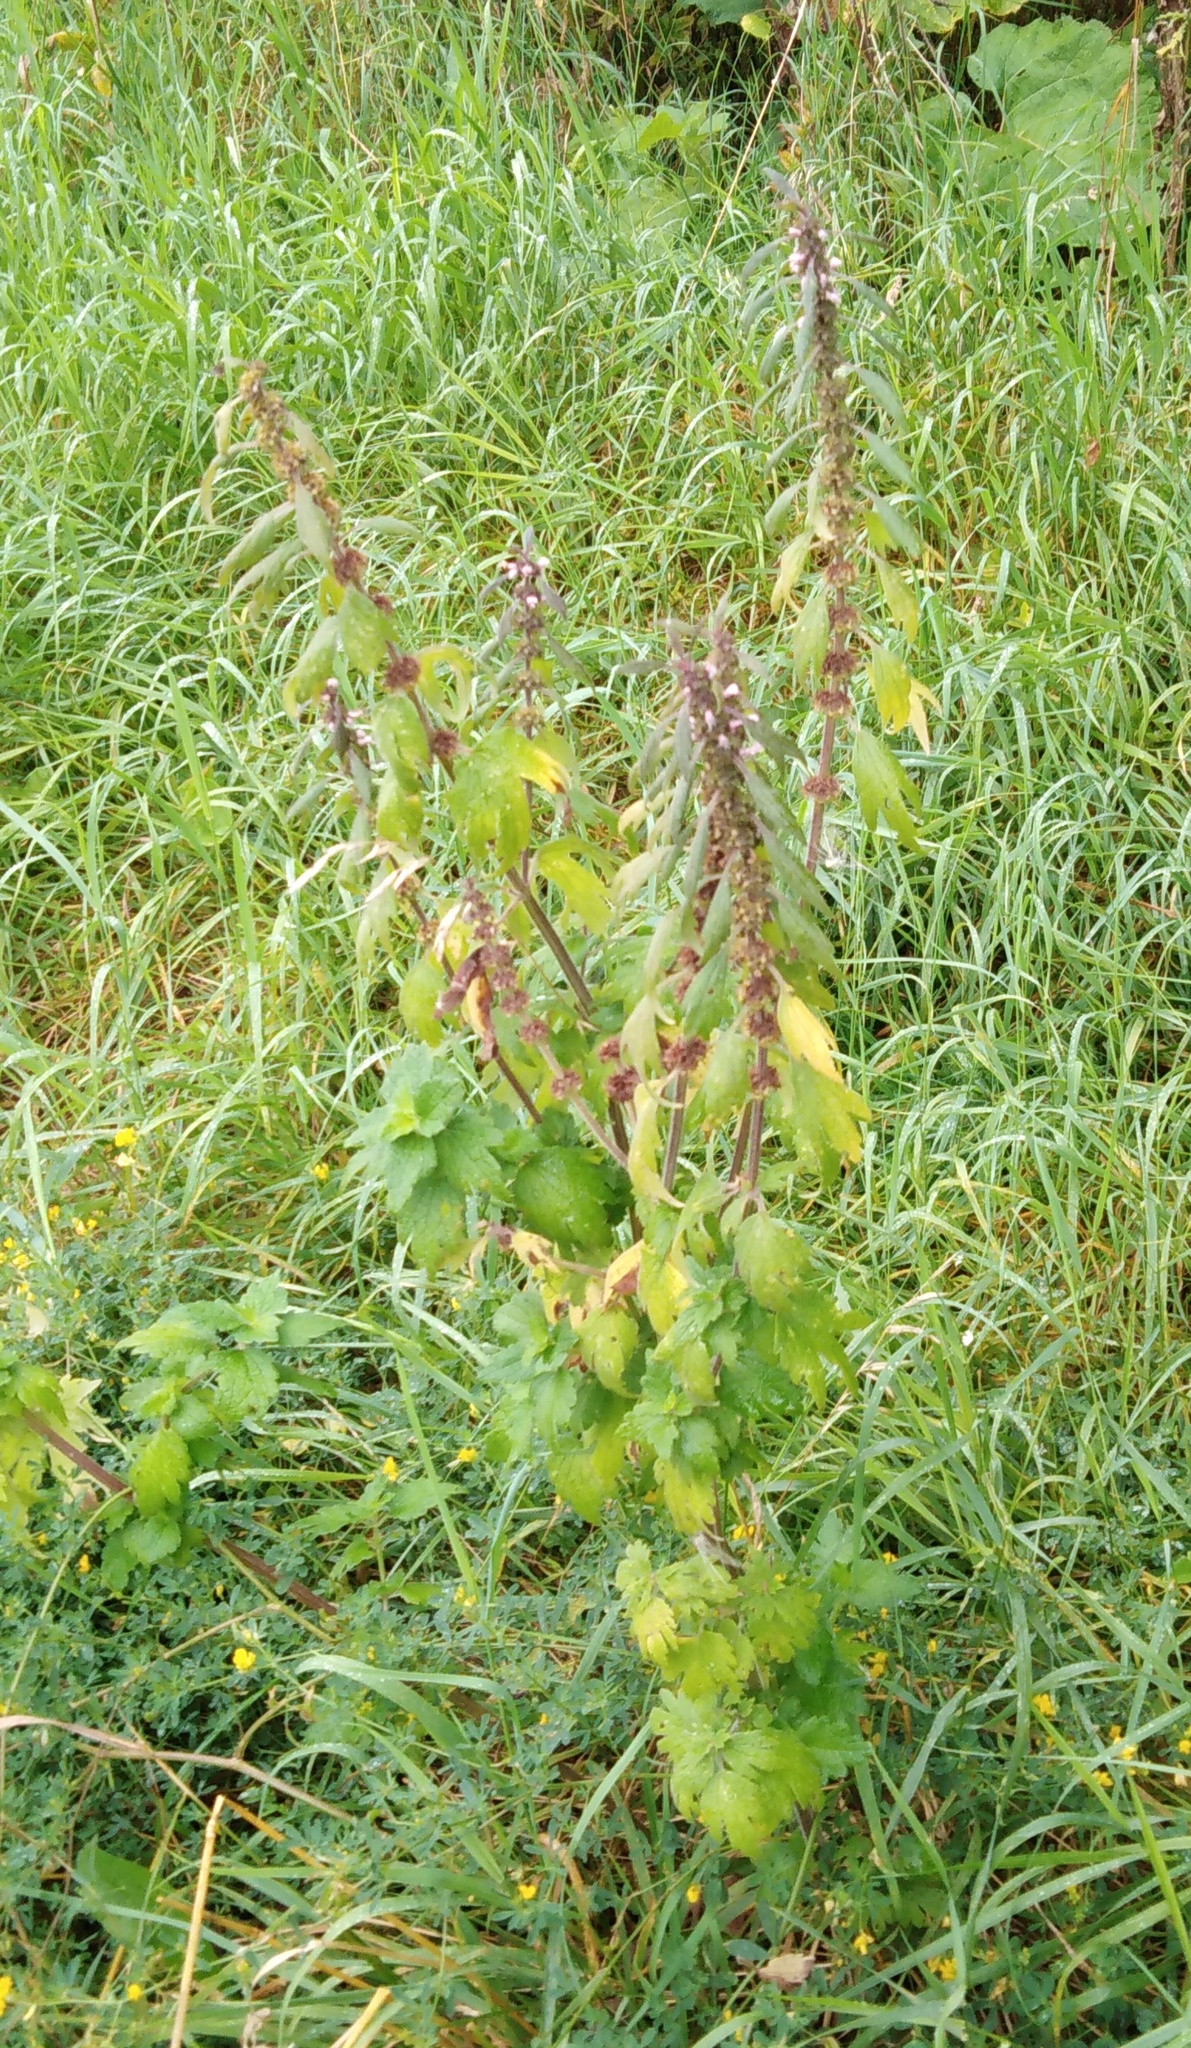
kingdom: Plantae
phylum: Tracheophyta
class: Magnoliopsida
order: Lamiales
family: Lamiaceae
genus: Leonurus
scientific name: Leonurus quinquelobatus
